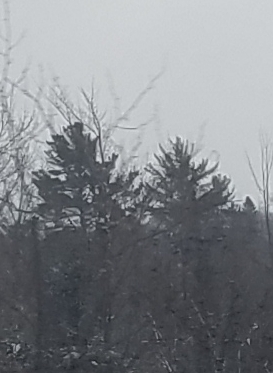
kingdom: Plantae
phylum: Tracheophyta
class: Pinopsida
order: Pinales
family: Pinaceae
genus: Pinus
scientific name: Pinus strobus
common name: Weymouth pine
